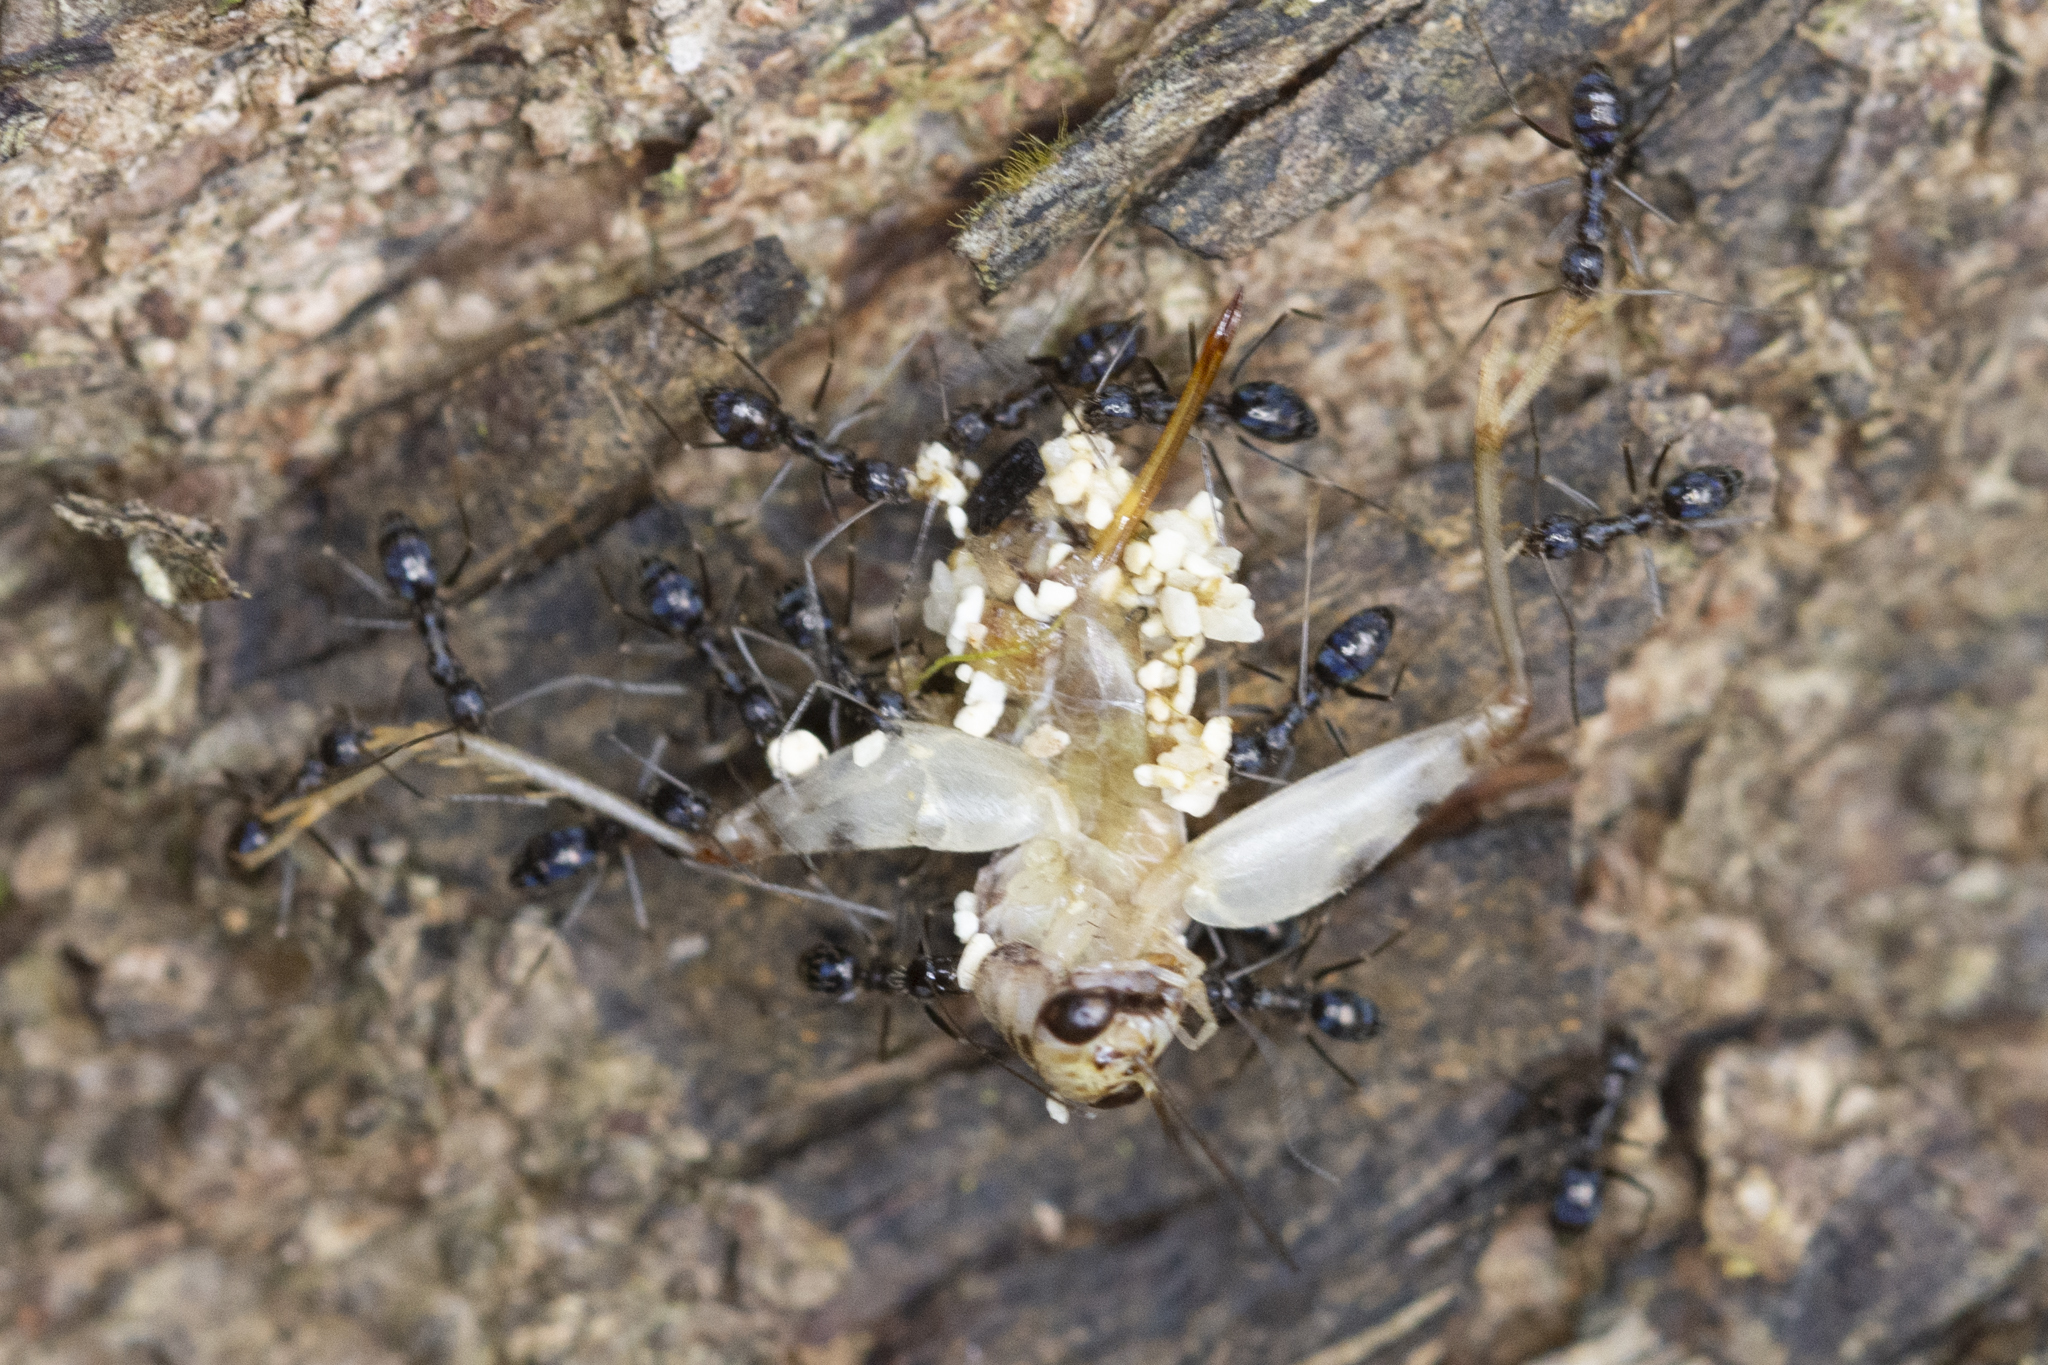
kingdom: Animalia
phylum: Arthropoda
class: Insecta
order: Hymenoptera
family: Formicidae
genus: Paratrechina
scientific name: Paratrechina longicornis
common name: Longhorned crazy ant
